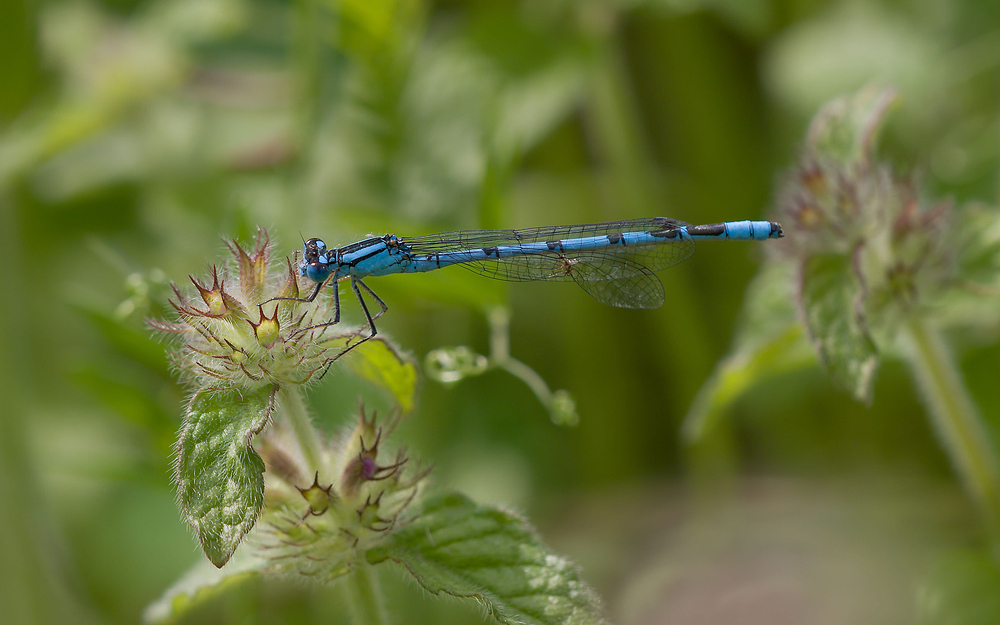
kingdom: Animalia
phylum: Arthropoda
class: Insecta
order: Odonata
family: Coenagrionidae
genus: Enallagma
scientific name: Enallagma cyathigerum
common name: Common blue damselfly
